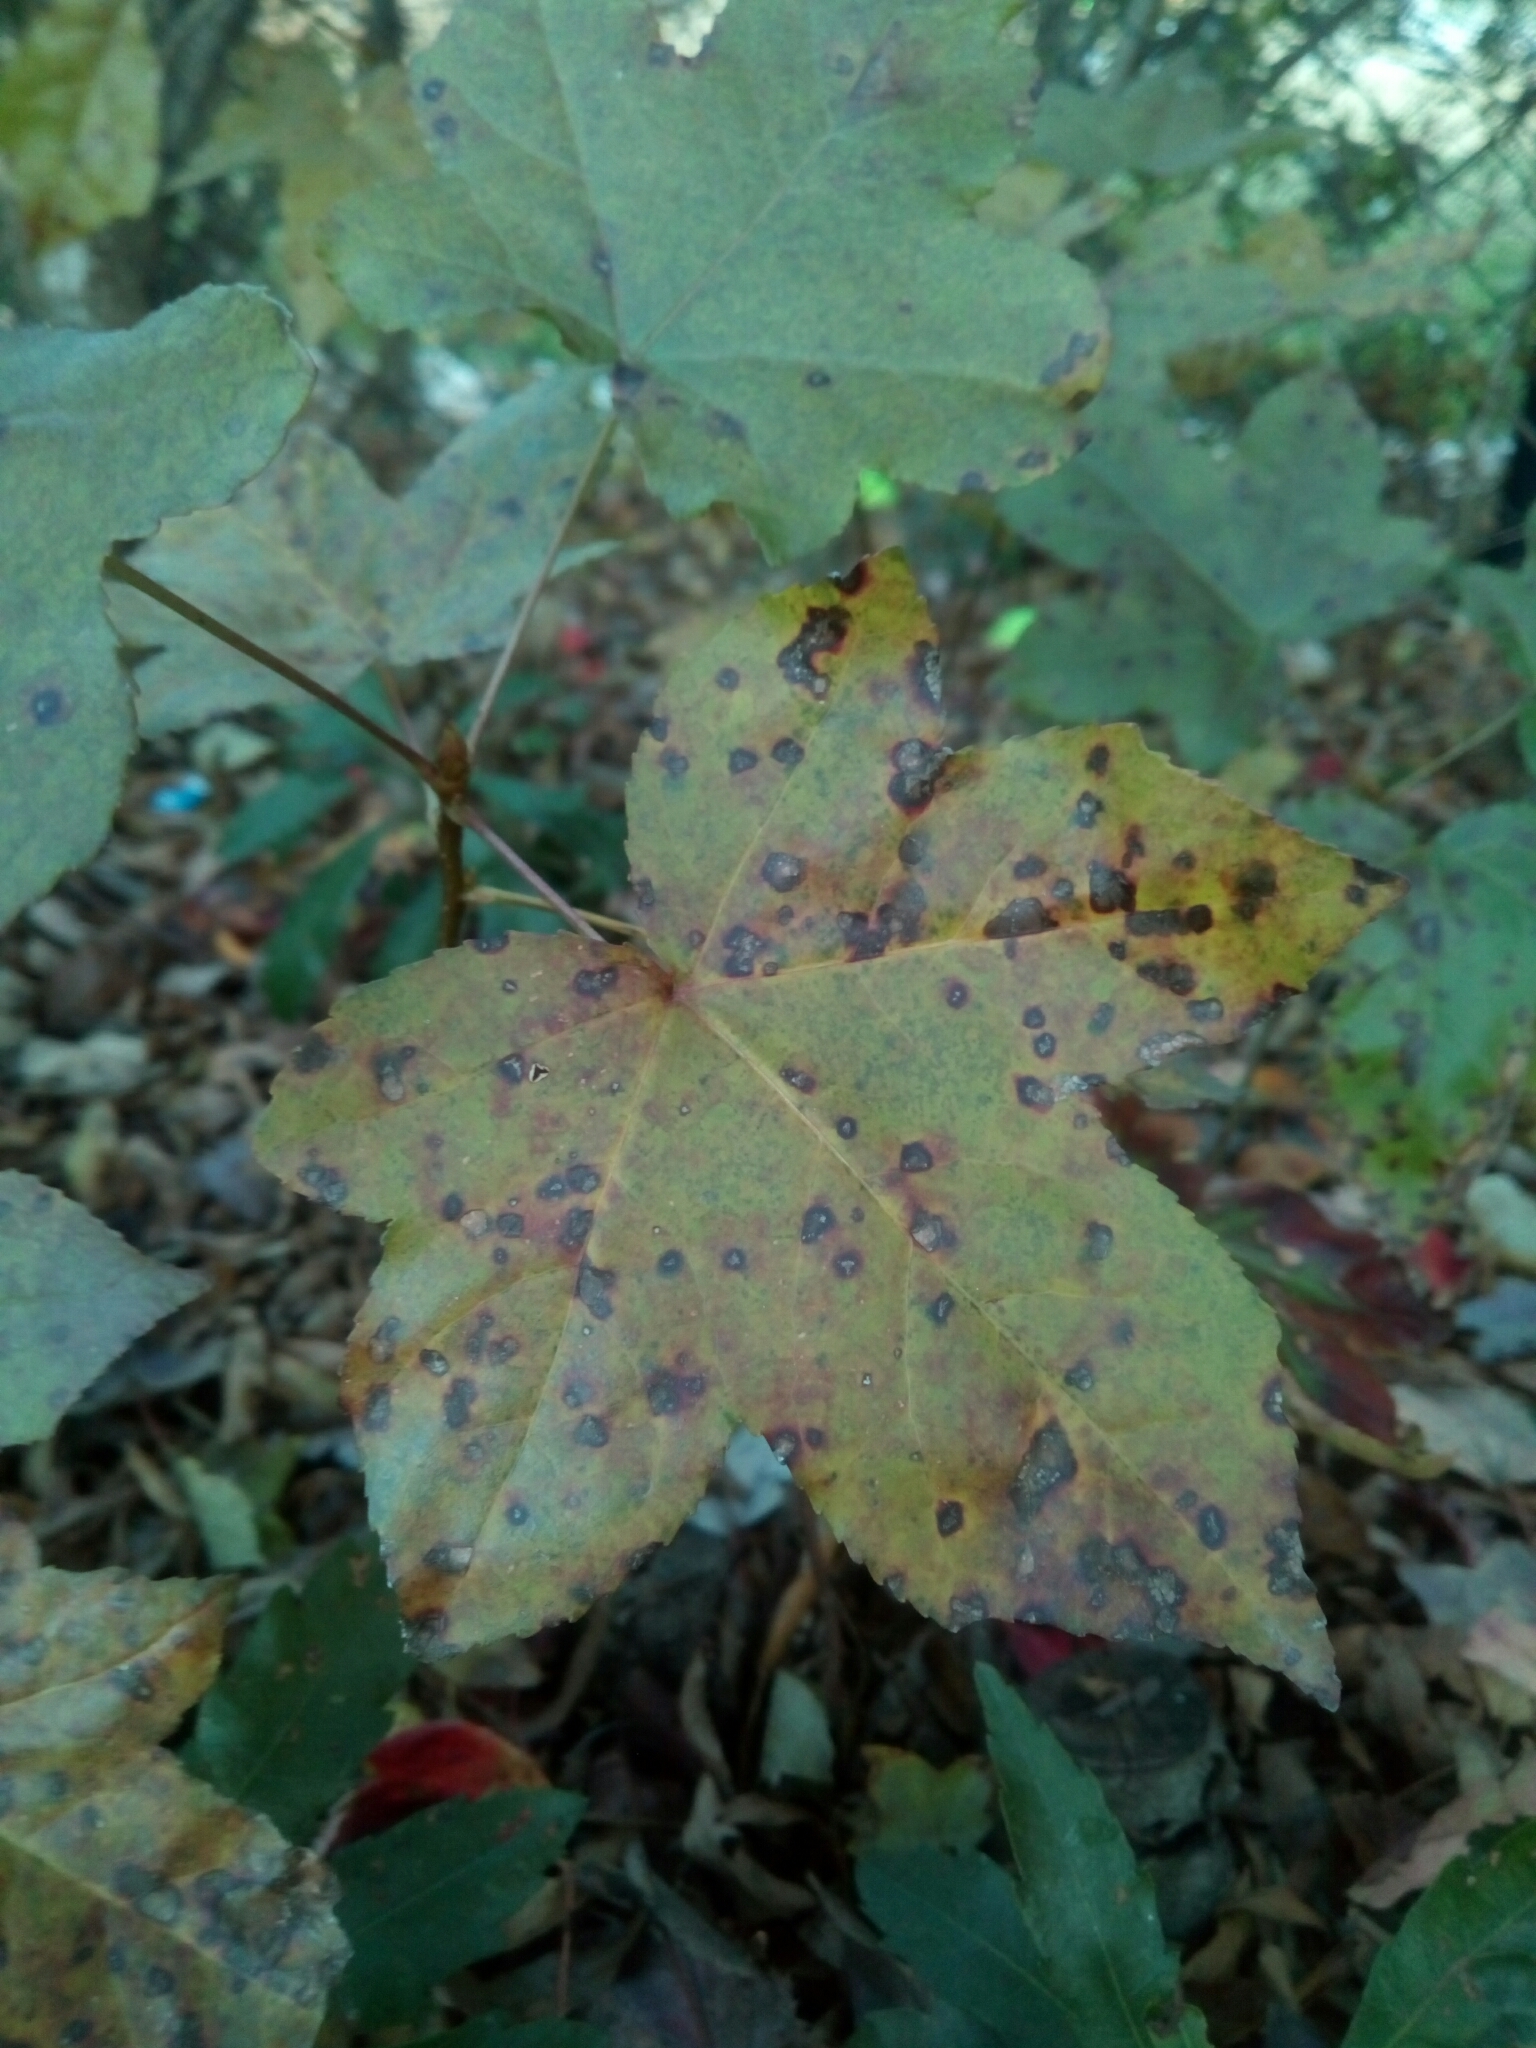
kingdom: Plantae
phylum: Tracheophyta
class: Magnoliopsida
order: Saxifragales
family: Altingiaceae
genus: Liquidambar
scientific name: Liquidambar styraciflua
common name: Sweet gum
